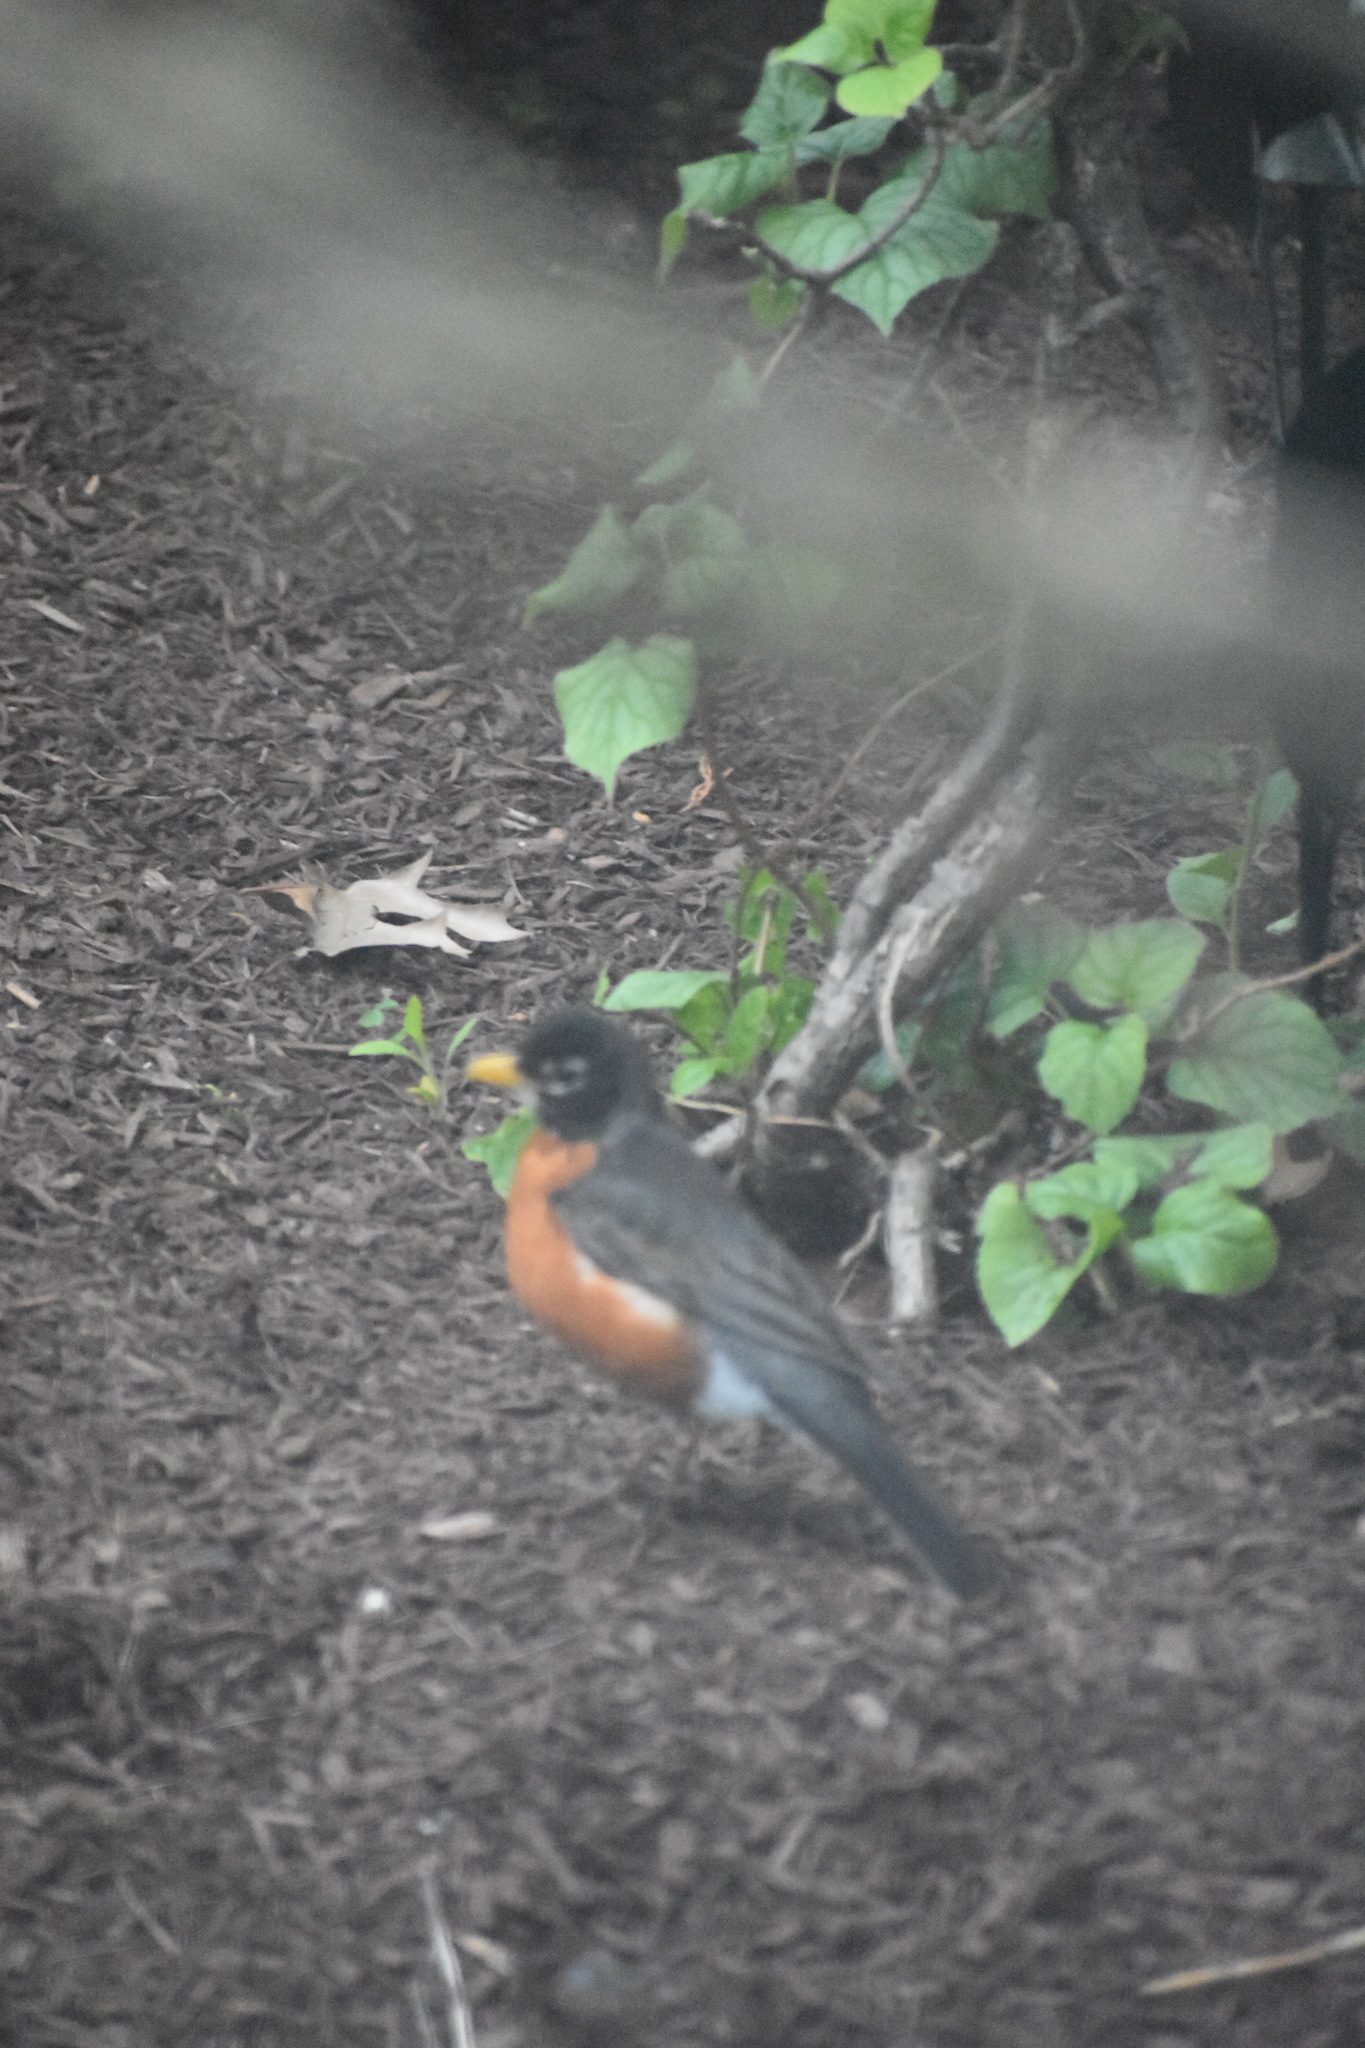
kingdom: Animalia
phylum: Chordata
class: Aves
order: Passeriformes
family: Turdidae
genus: Turdus
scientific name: Turdus migratorius
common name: American robin
